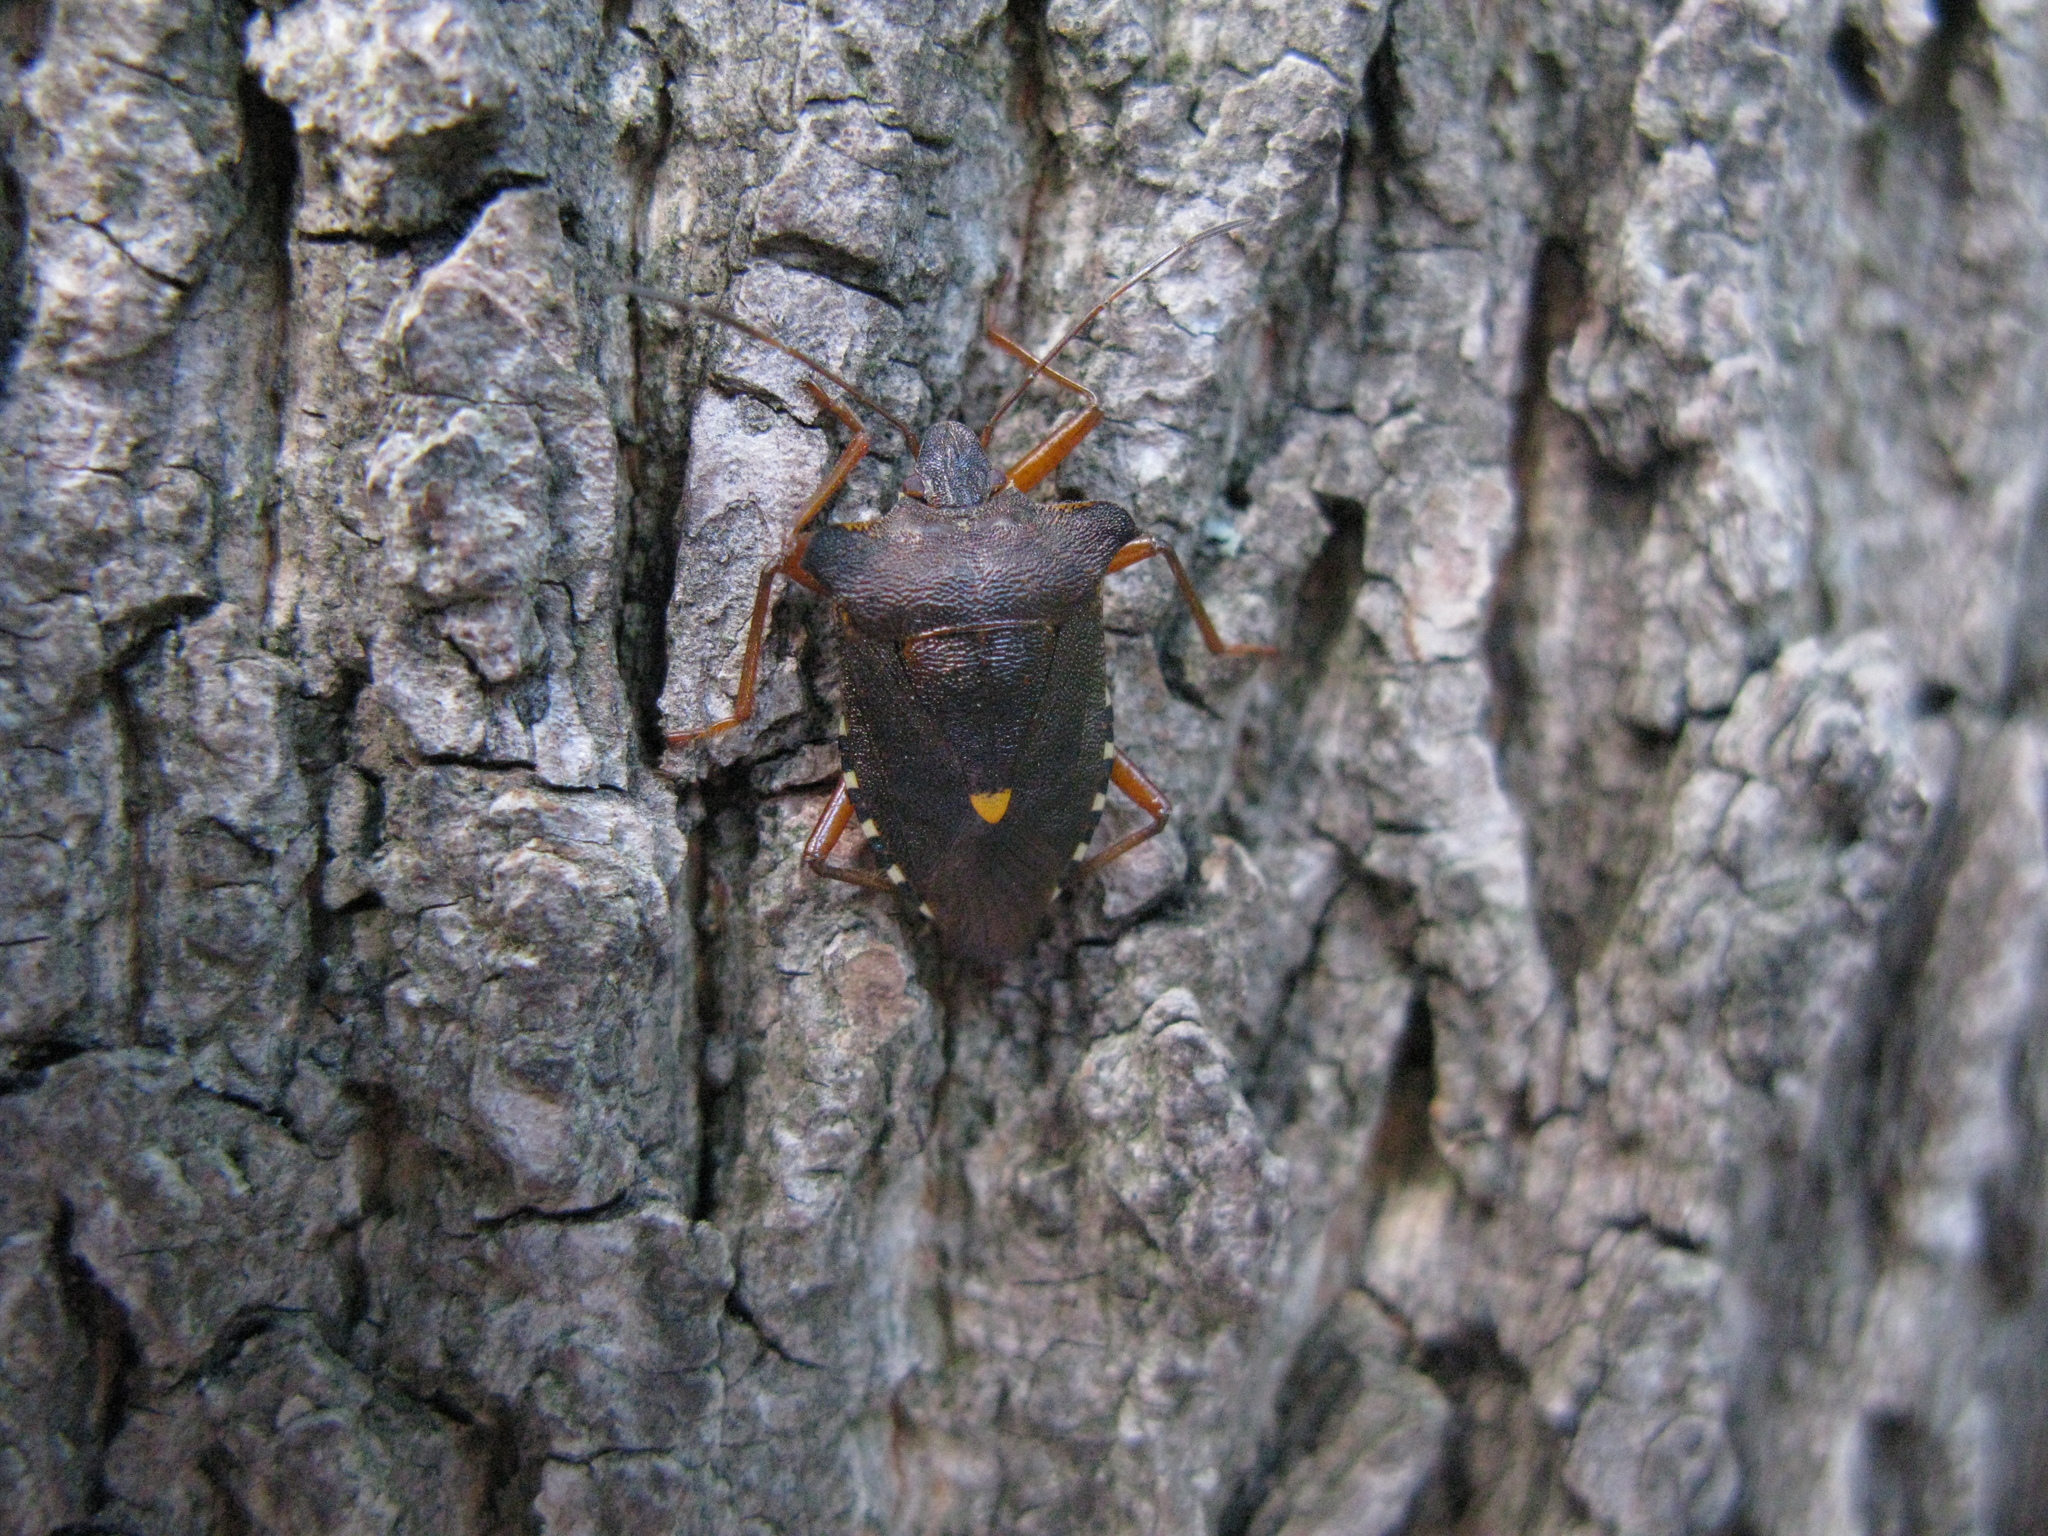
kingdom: Animalia
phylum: Arthropoda
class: Insecta
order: Hemiptera
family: Pentatomidae
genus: Pentatoma
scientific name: Pentatoma rufipes
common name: Forest bug
